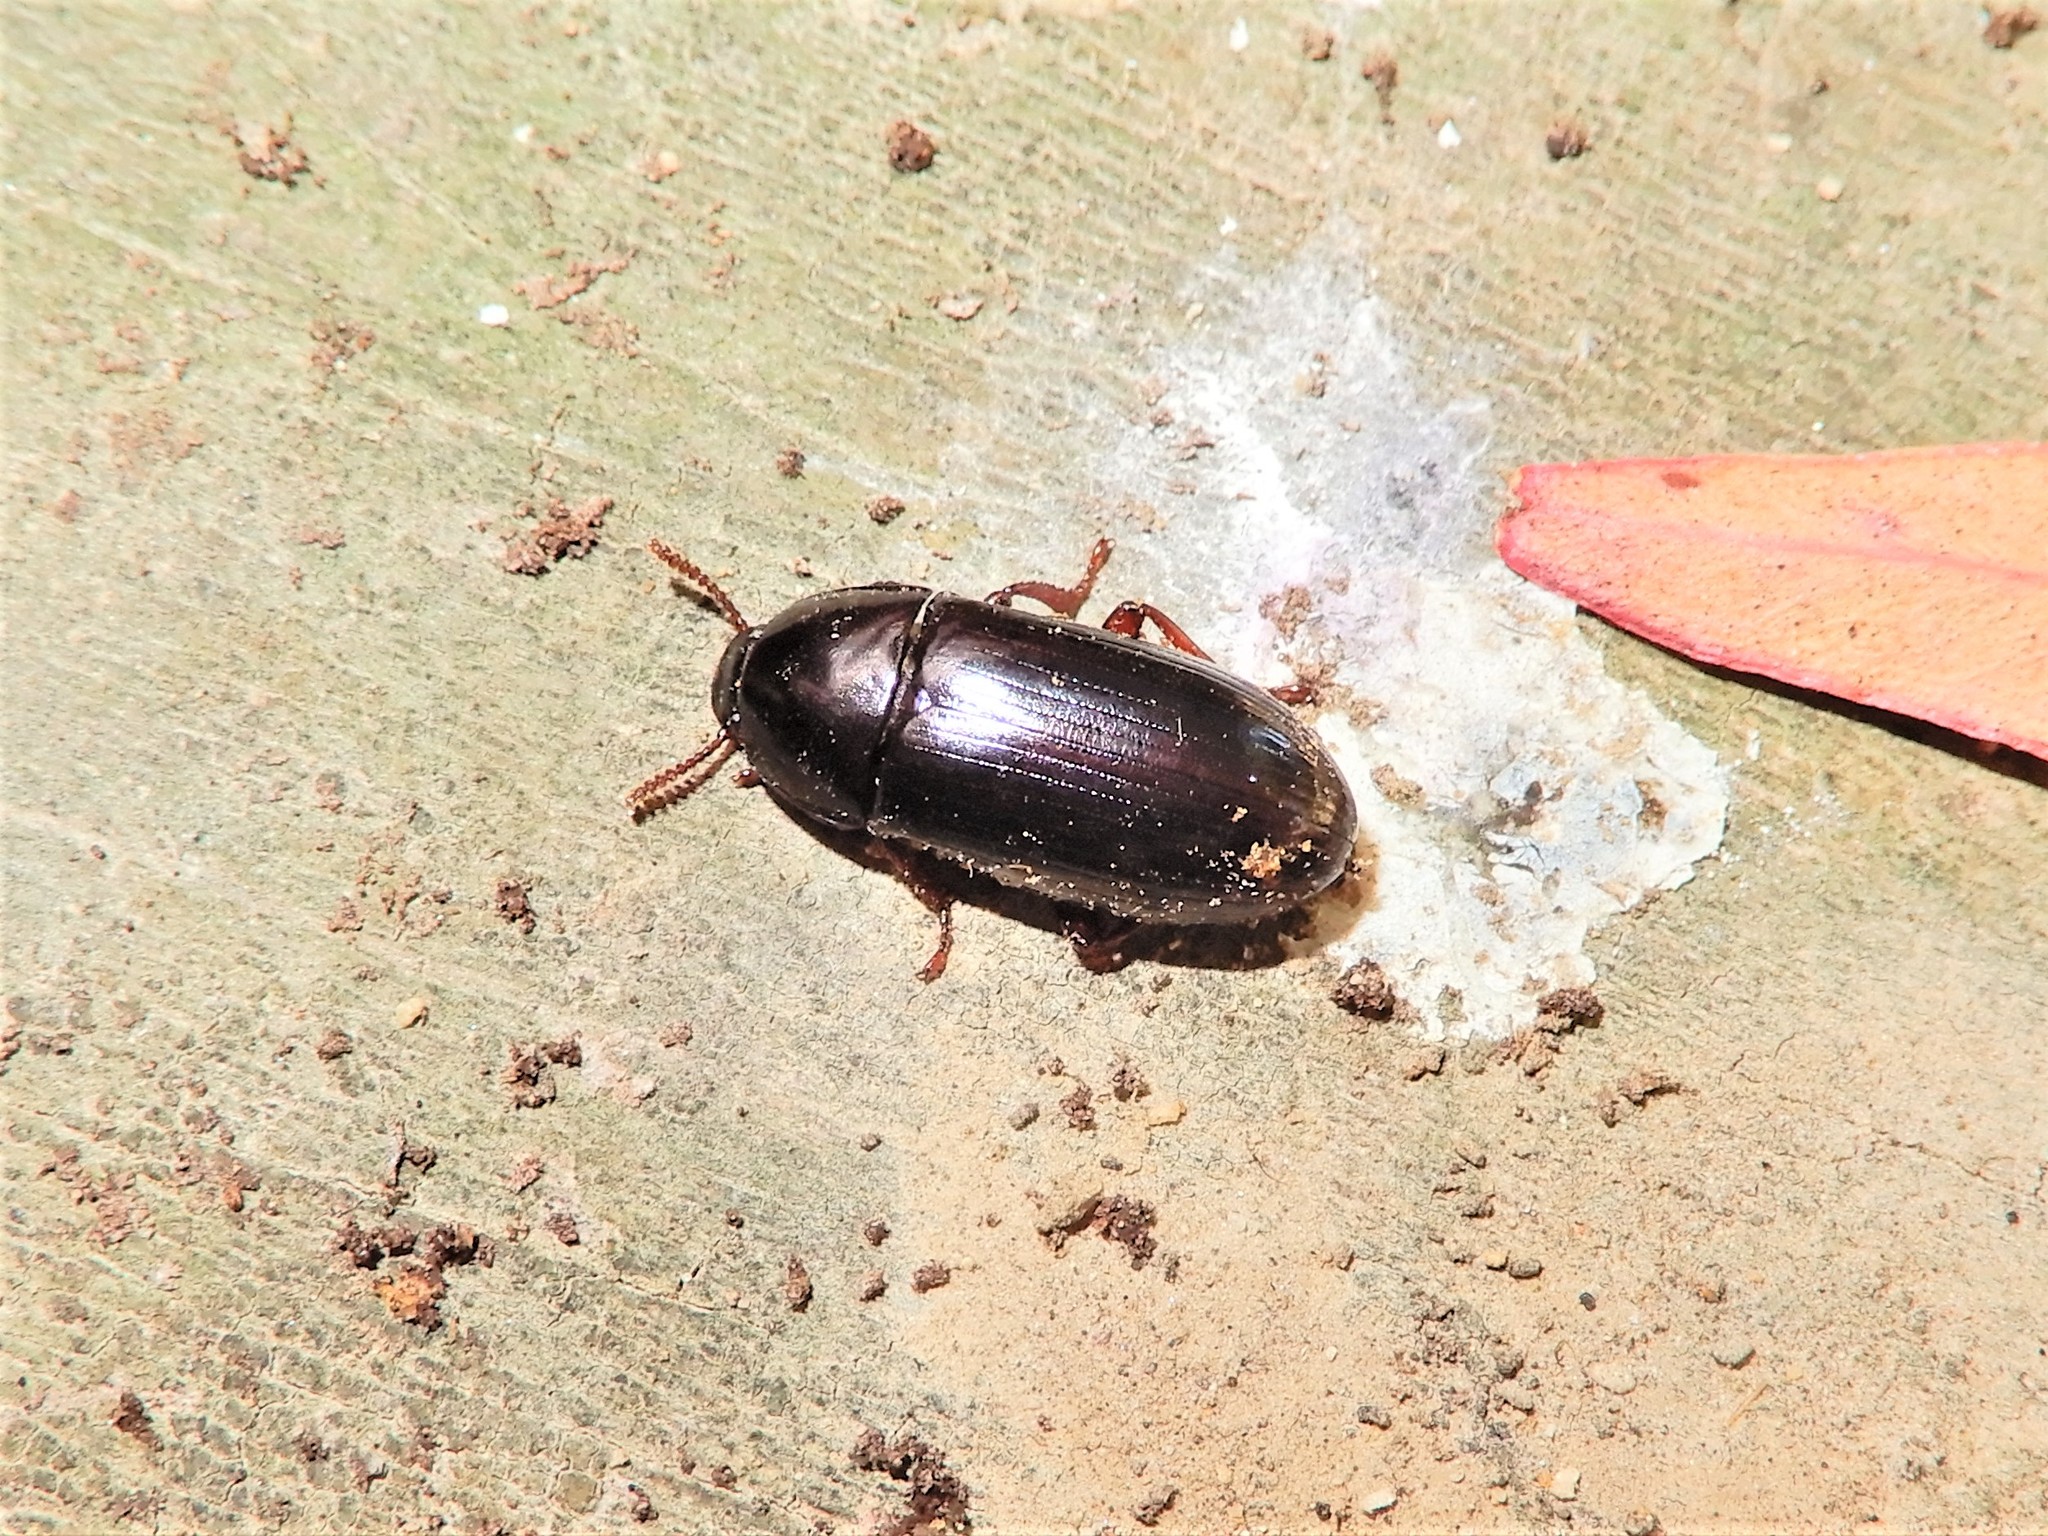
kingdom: Animalia
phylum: Arthropoda
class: Insecta
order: Coleoptera
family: Tenebrionidae
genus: Uloma
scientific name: Uloma tenebrionoides
